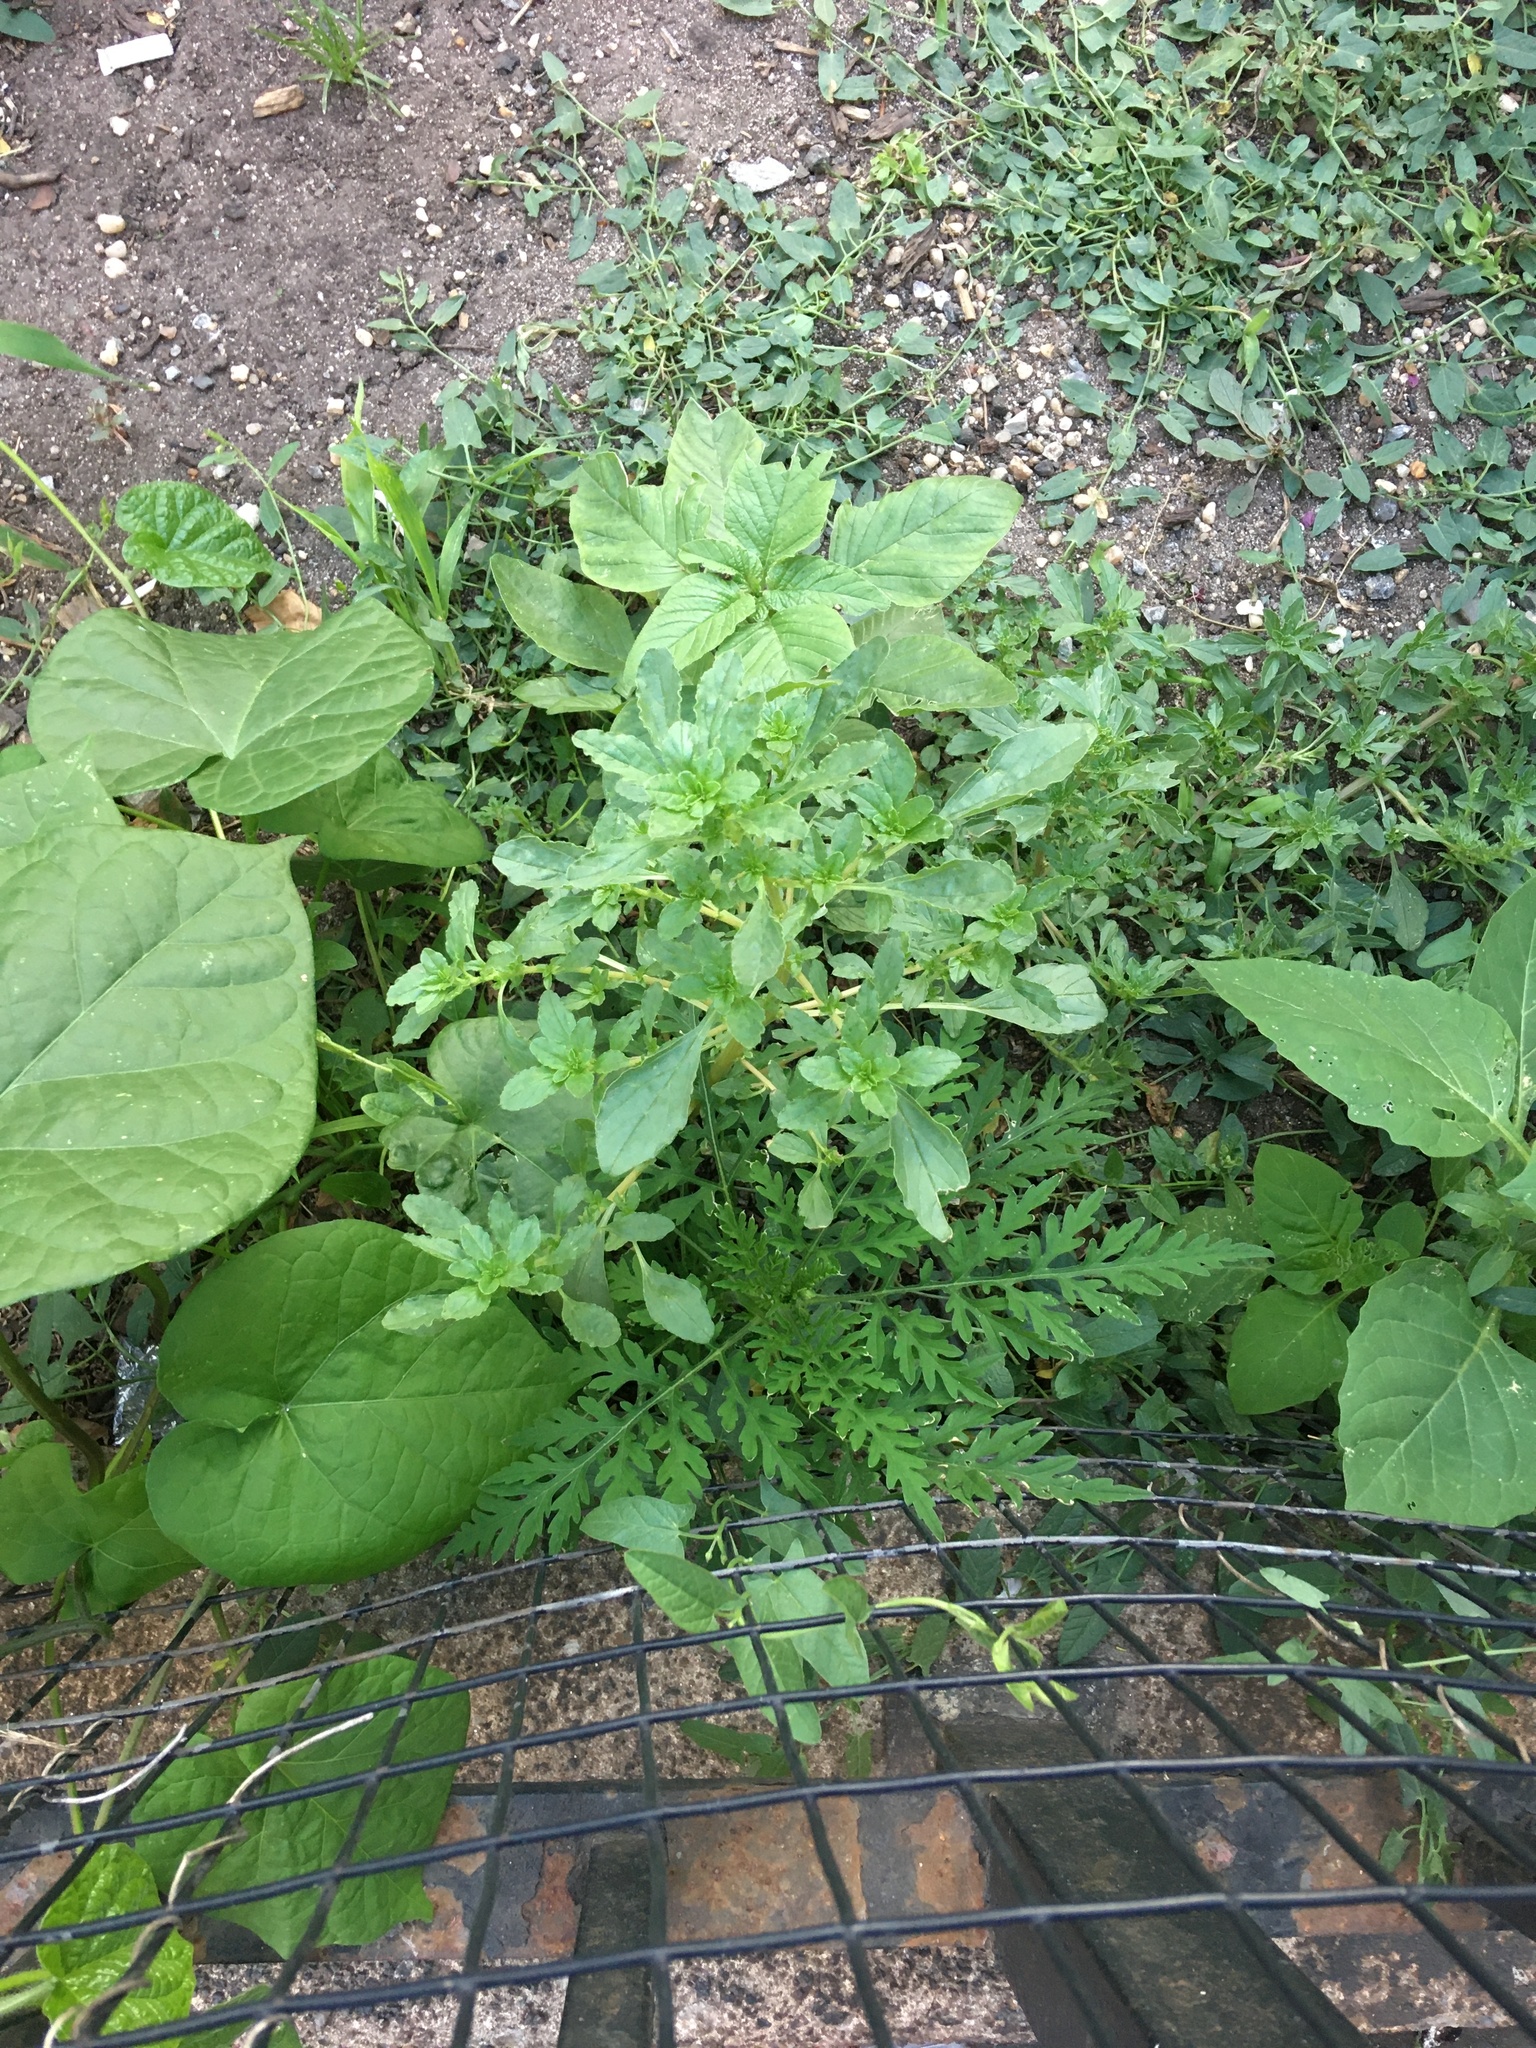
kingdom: Plantae
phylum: Tracheophyta
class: Magnoliopsida
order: Caryophyllales
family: Amaranthaceae
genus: Amaranthus
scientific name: Amaranthus albus
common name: White pigweed
